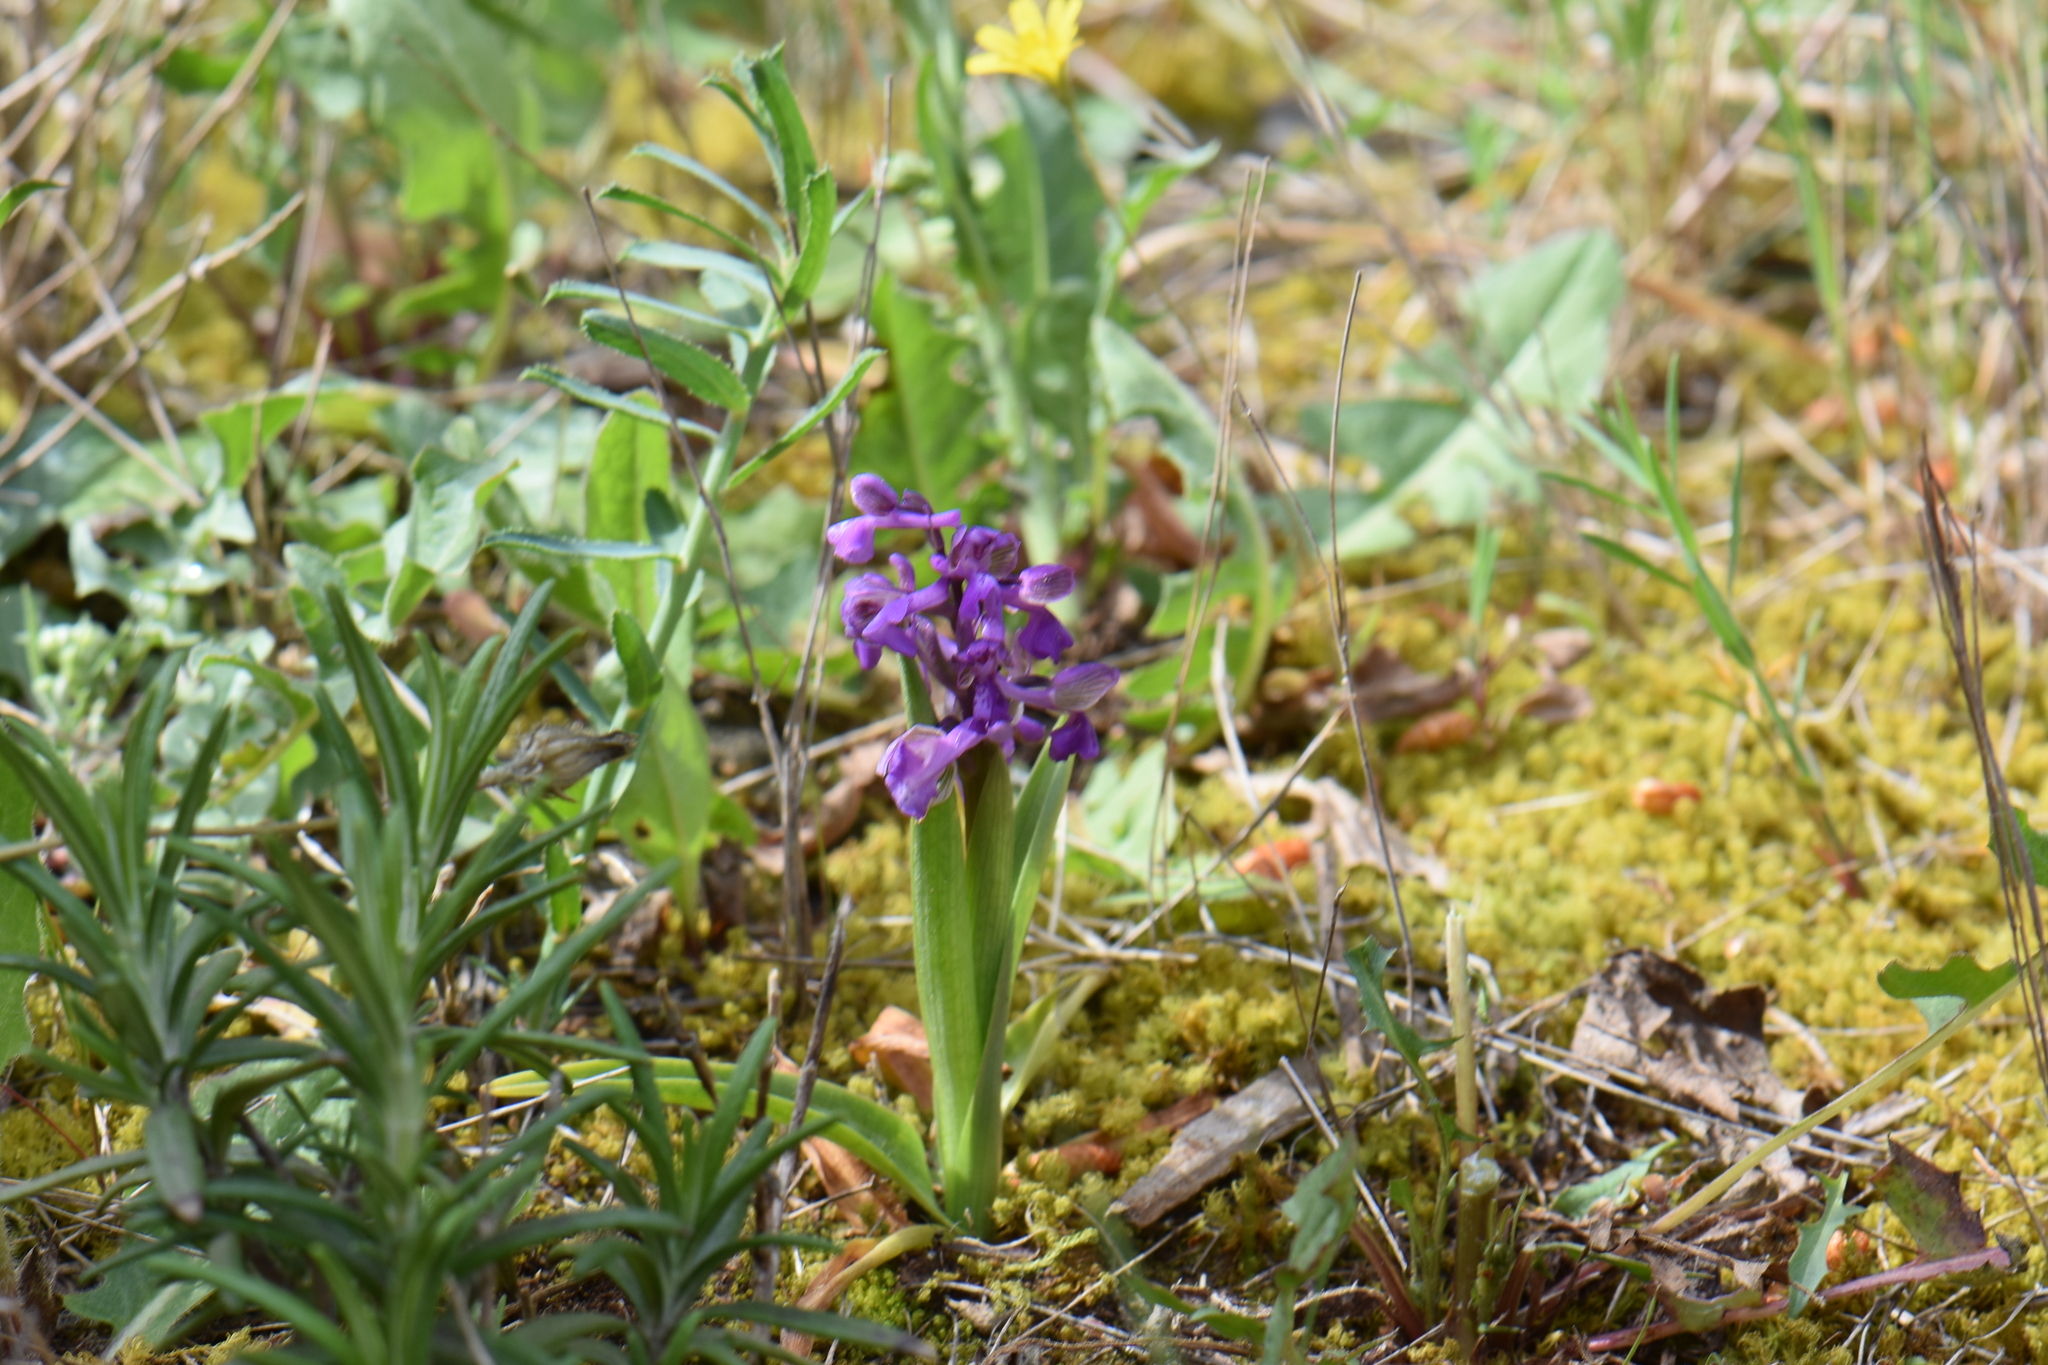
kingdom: Plantae
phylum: Tracheophyta
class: Liliopsida
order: Asparagales
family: Orchidaceae
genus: Anacamptis
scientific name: Anacamptis morio
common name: Green-winged orchid
